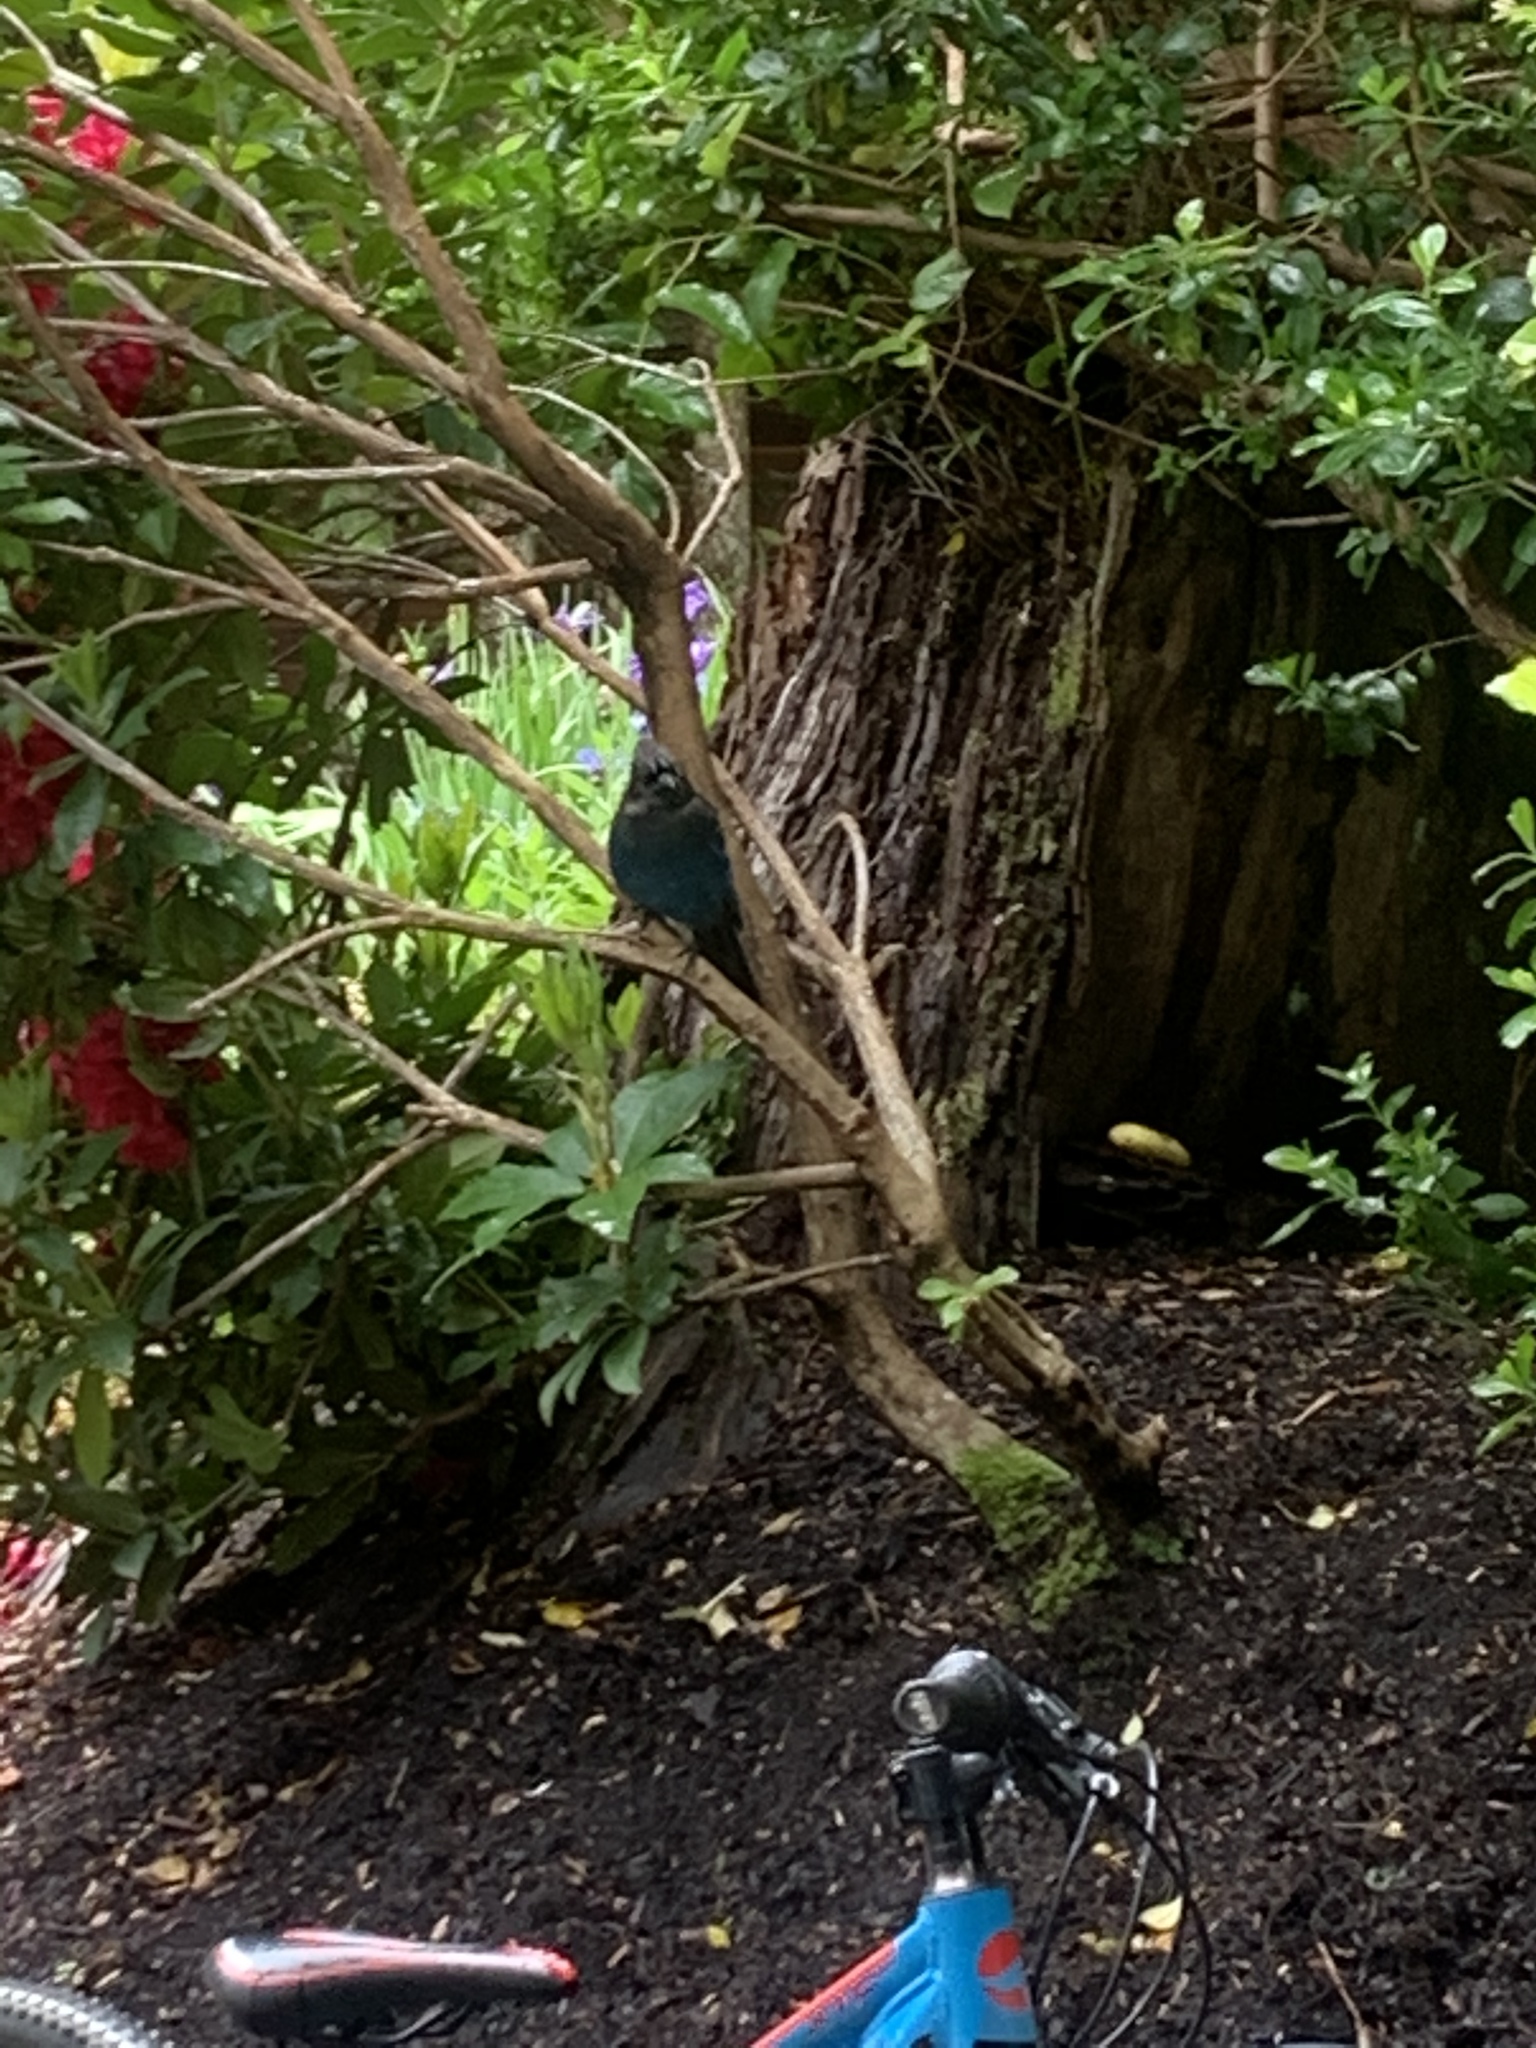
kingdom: Animalia
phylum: Chordata
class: Aves
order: Passeriformes
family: Corvidae
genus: Cyanocitta
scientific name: Cyanocitta stelleri
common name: Steller's jay
